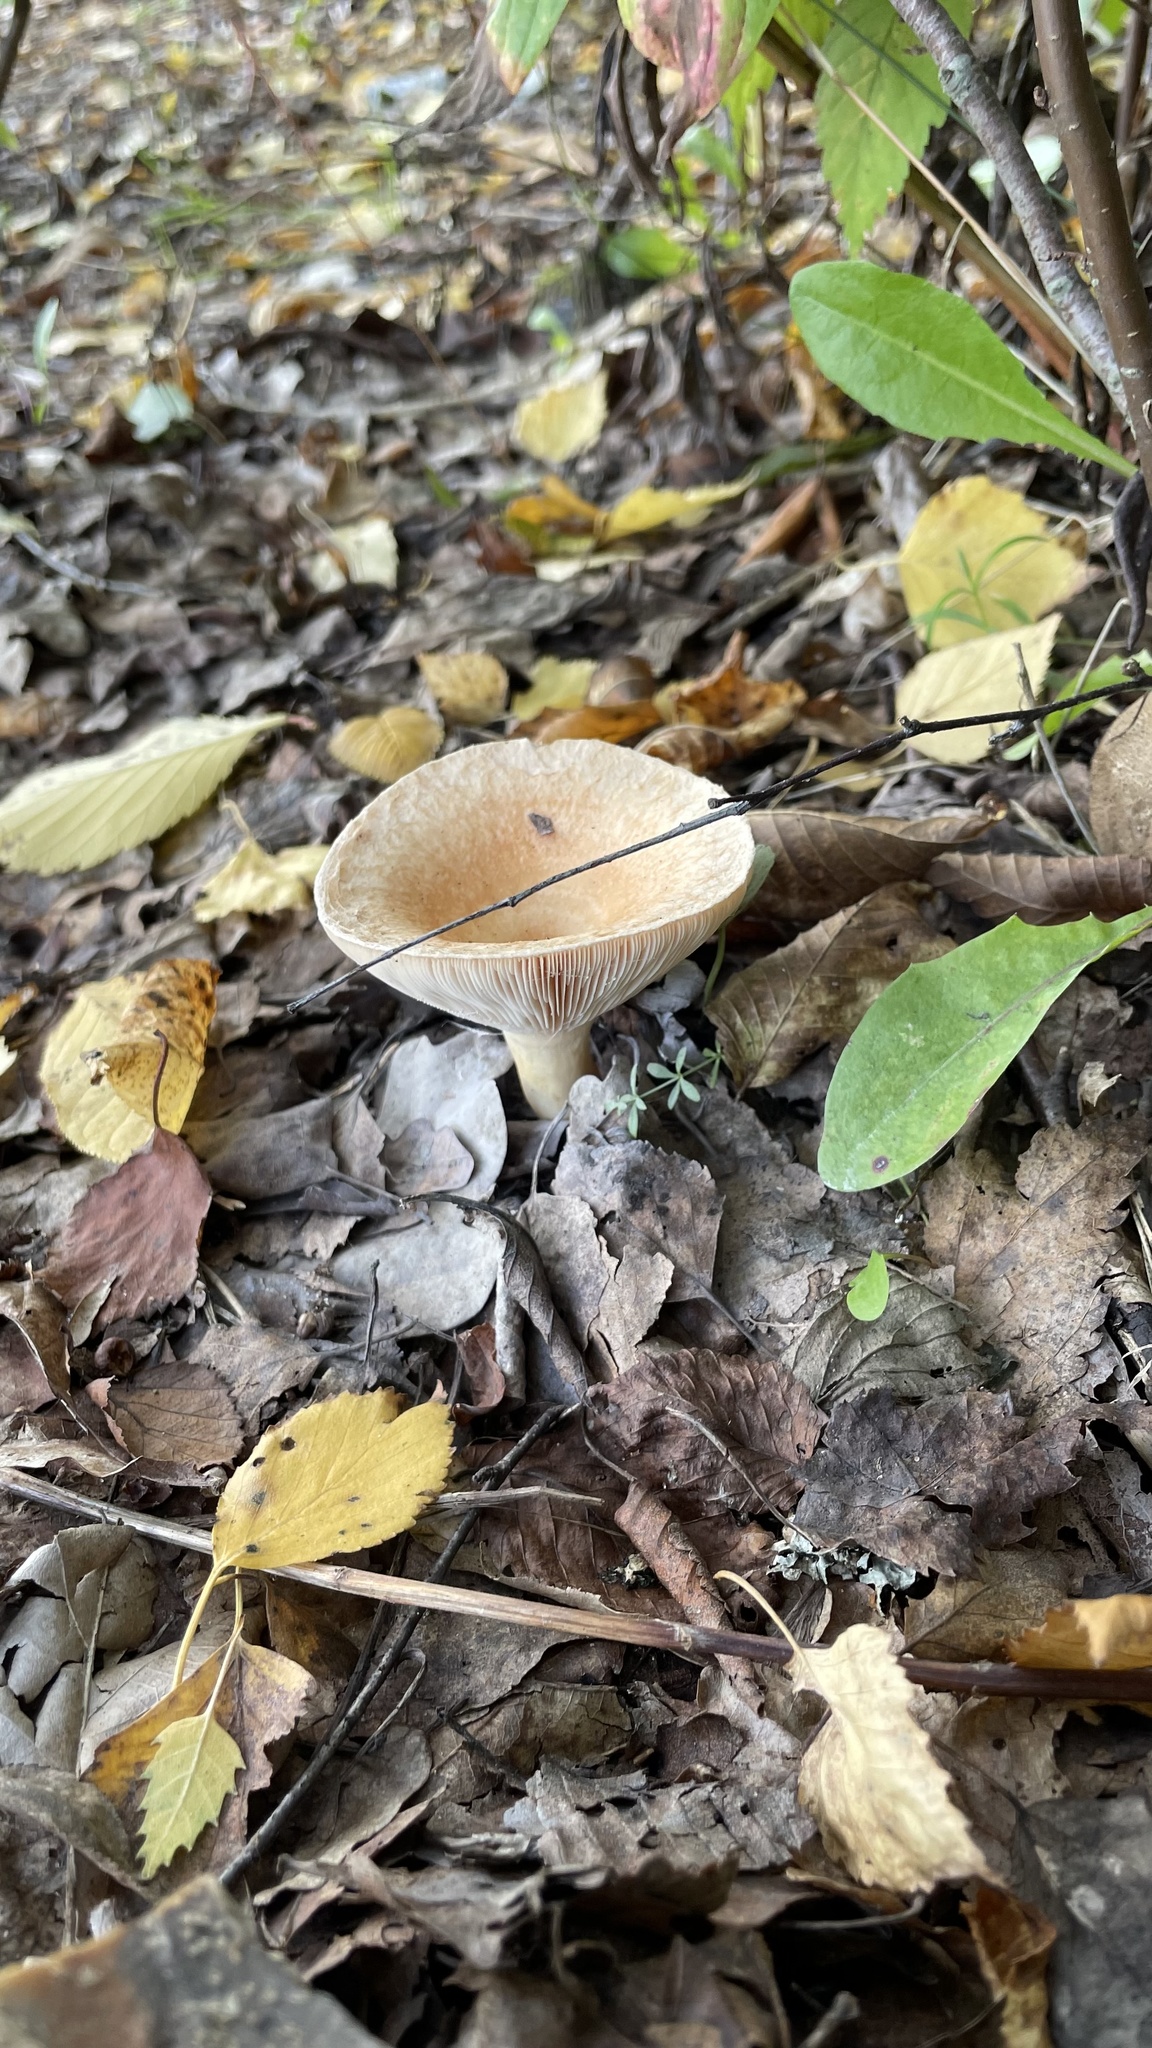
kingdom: Fungi
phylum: Basidiomycota
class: Agaricomycetes
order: Russulales
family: Russulaceae
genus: Lactarius
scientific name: Lactarius torminosus
